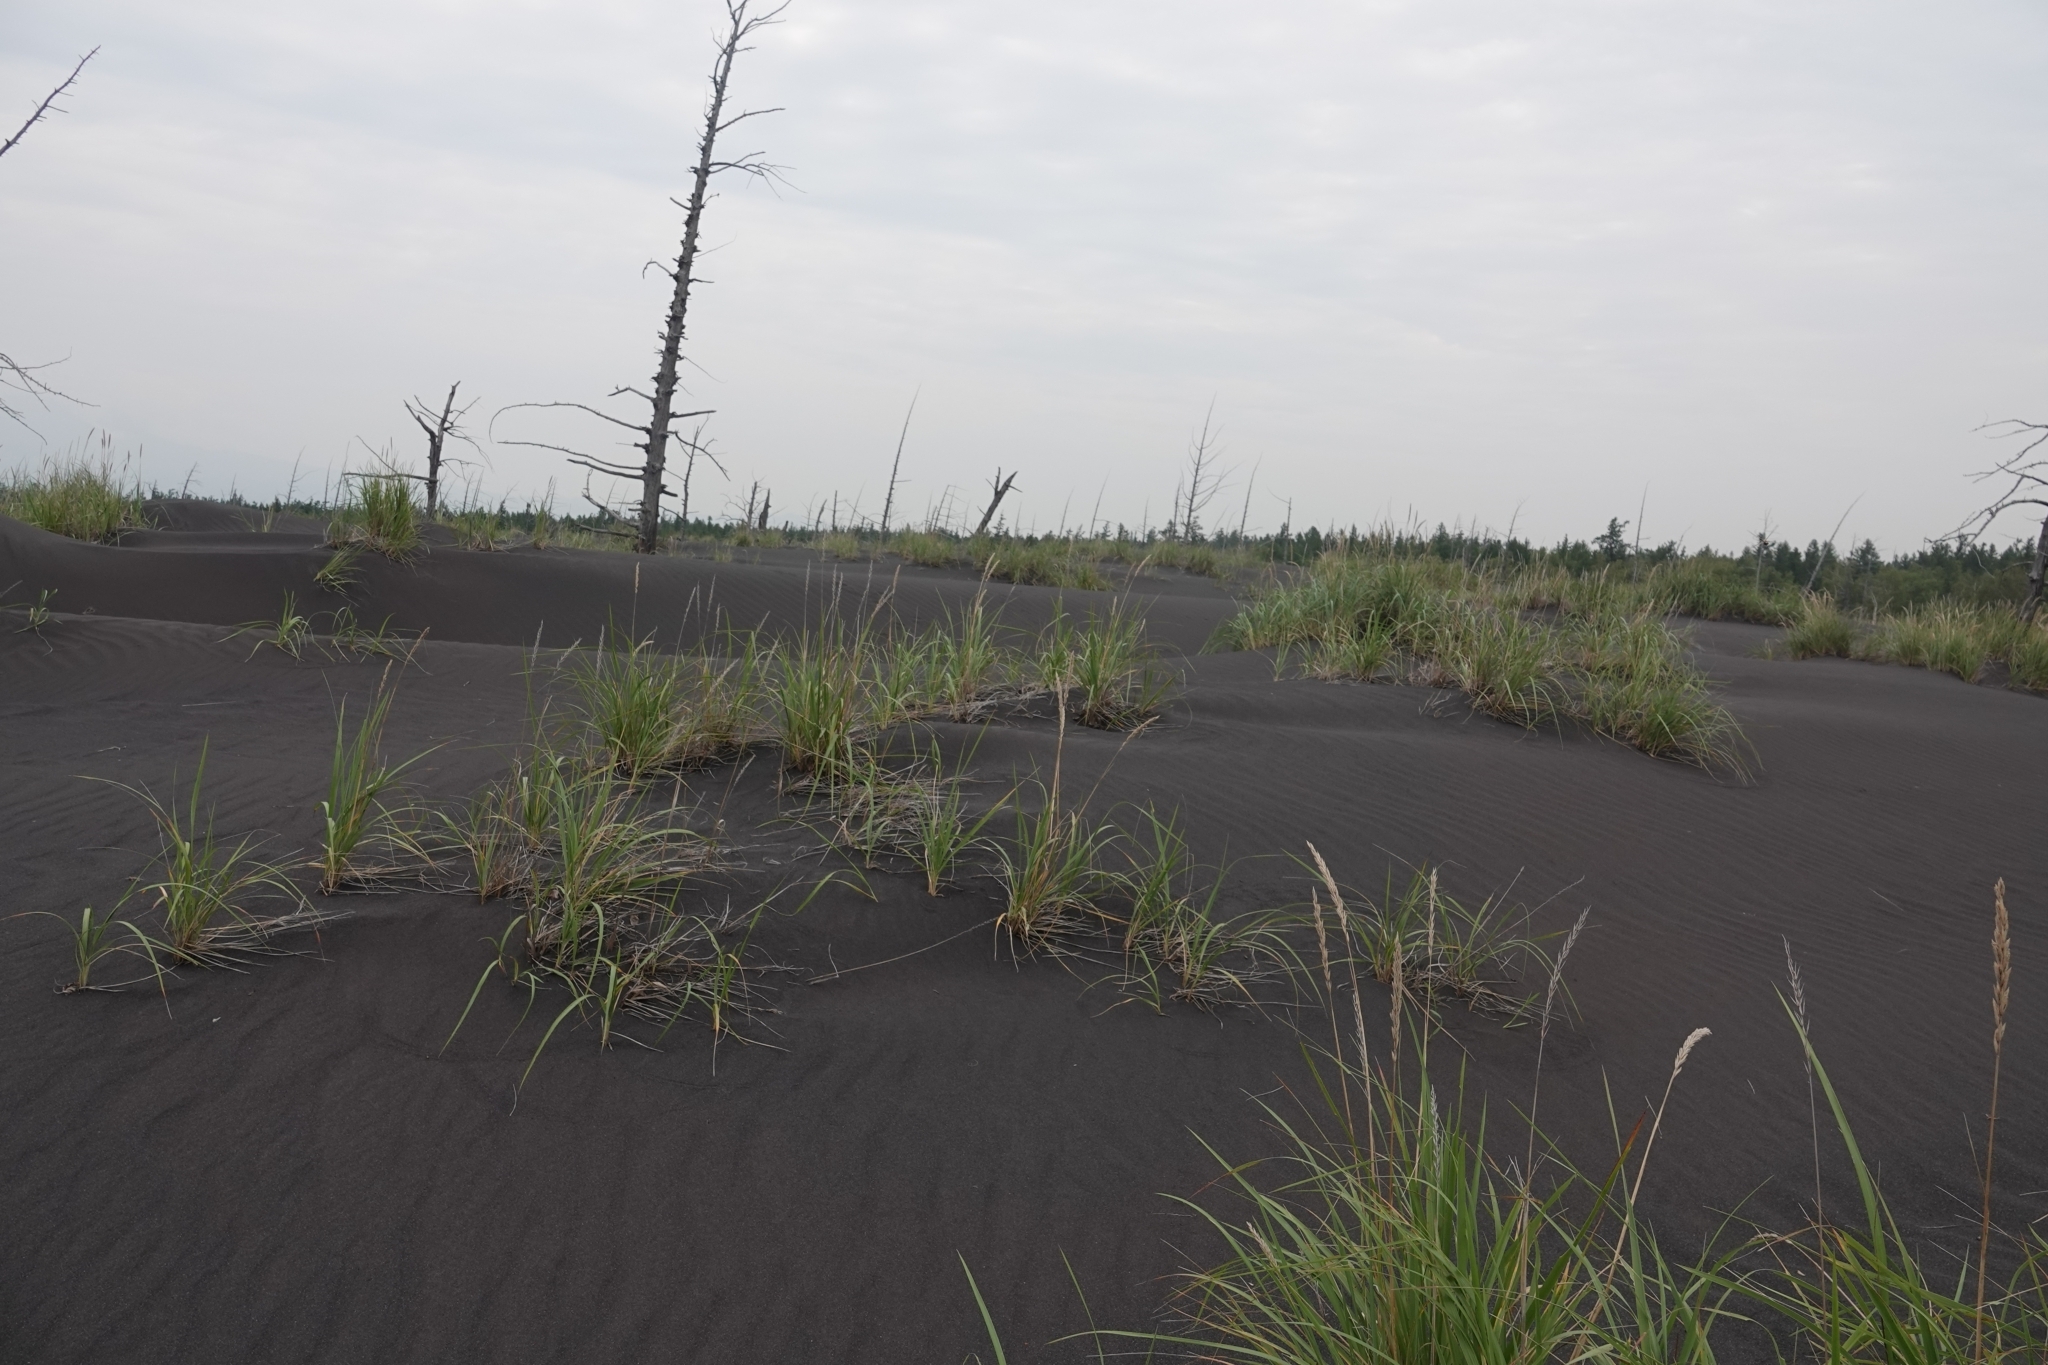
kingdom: Plantae
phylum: Tracheophyta
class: Liliopsida
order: Poales
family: Poaceae
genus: Leymus
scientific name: Leymus mollis
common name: American dune grass
